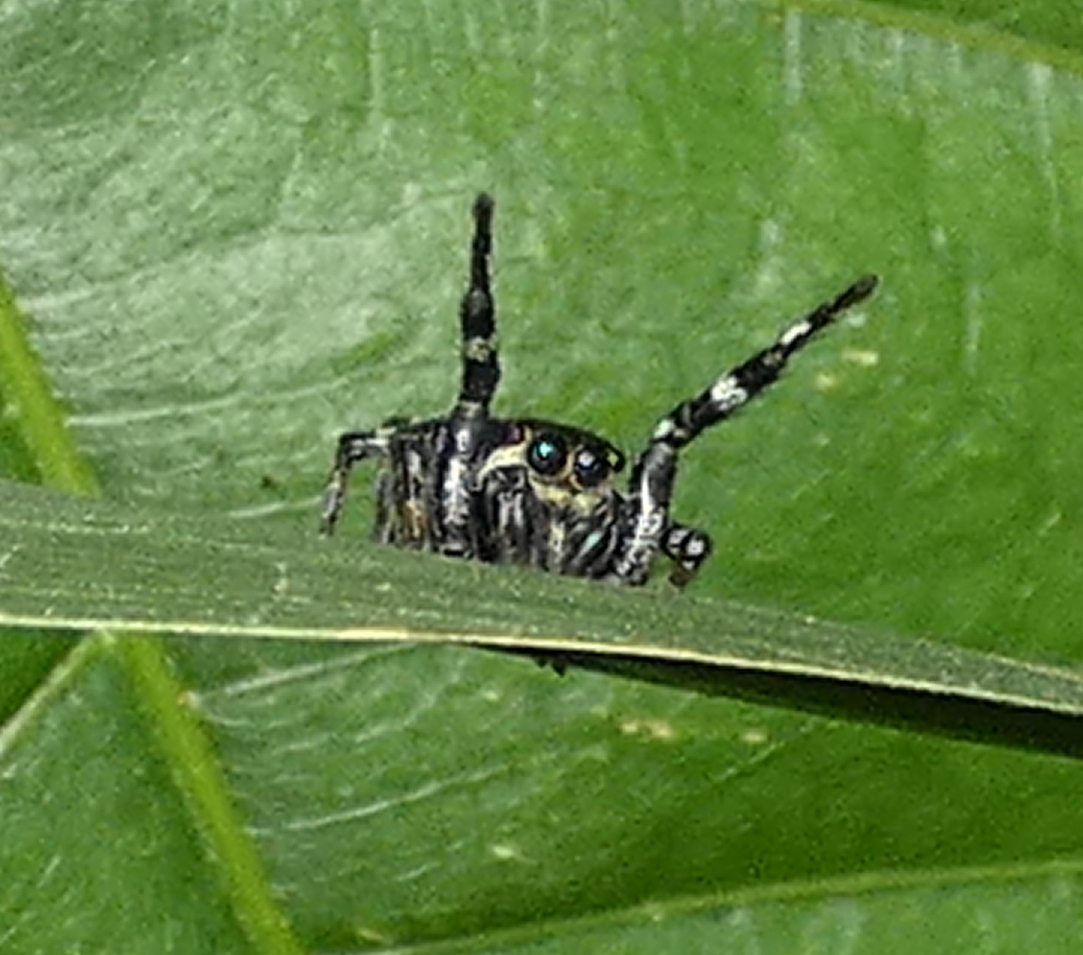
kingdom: Animalia
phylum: Arthropoda
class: Arachnida
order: Araneae
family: Salticidae
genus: Phiale
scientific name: Phiale crocea
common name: Jumping spiders
